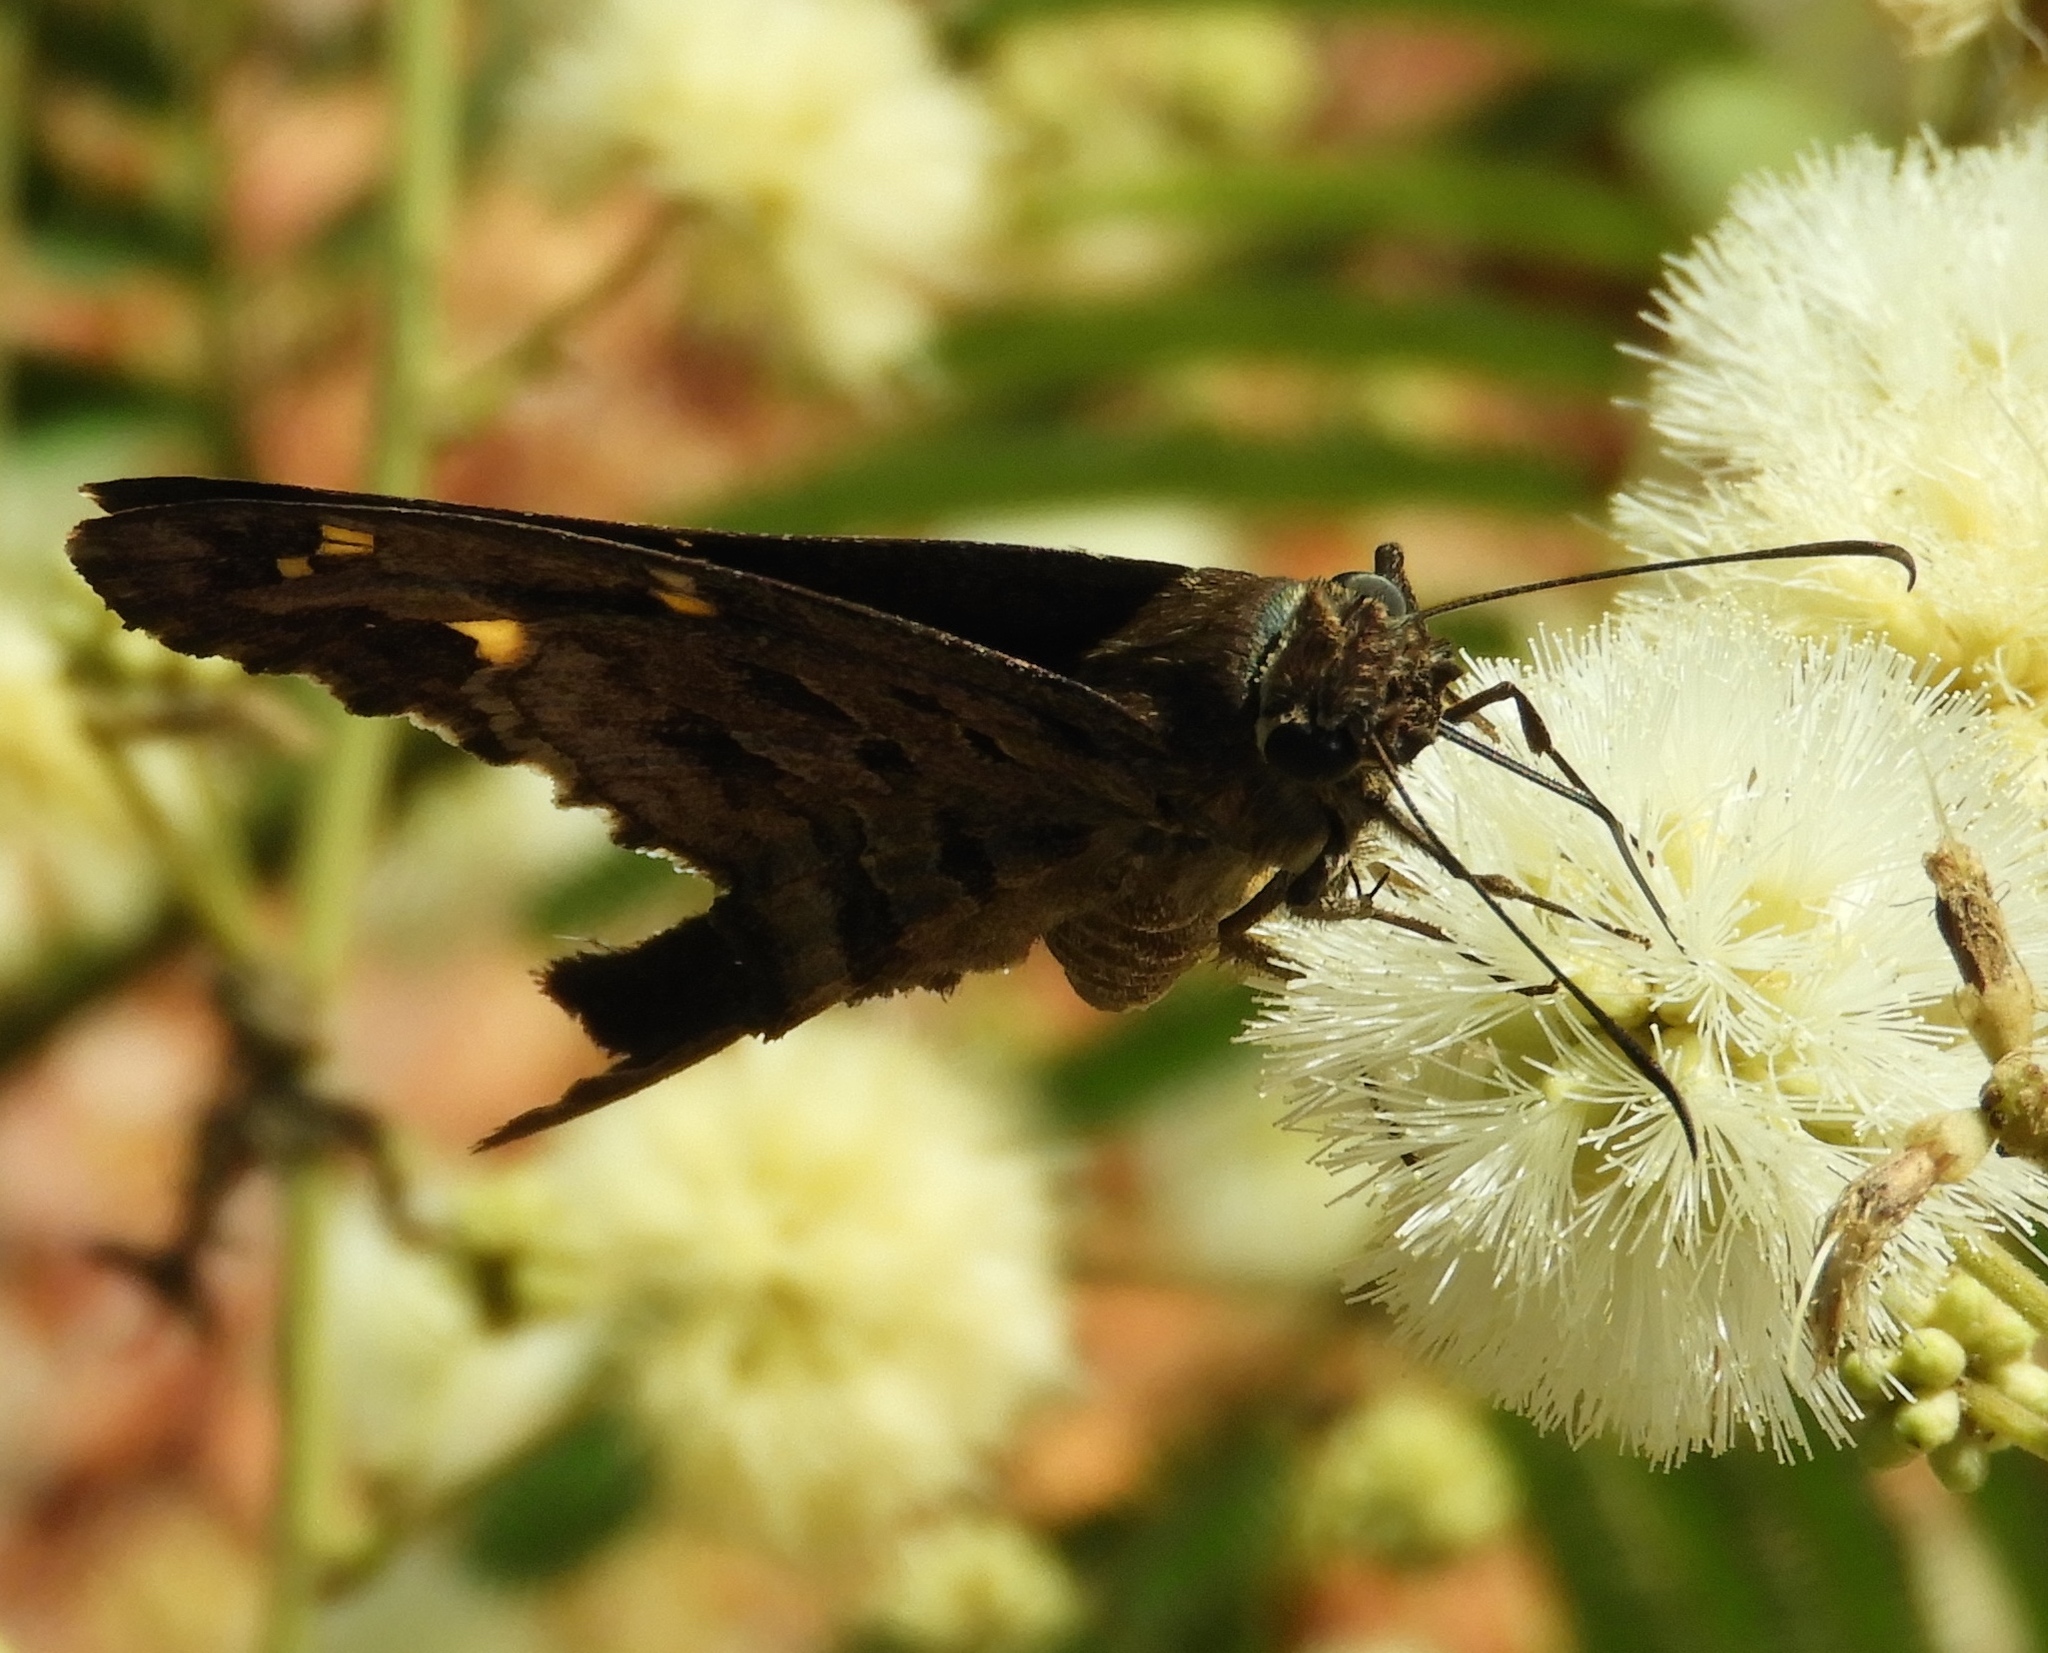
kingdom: Animalia
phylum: Arthropoda
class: Insecta
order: Lepidoptera
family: Hesperiidae
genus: Thorybes
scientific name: Thorybes
